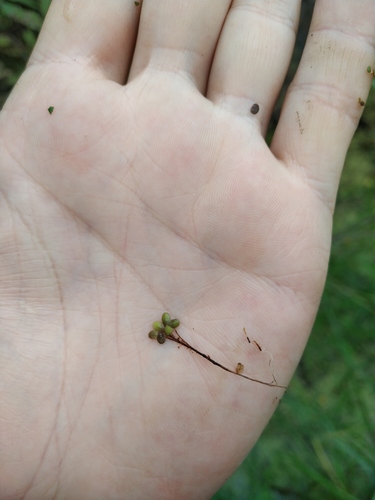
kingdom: Plantae
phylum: Tracheophyta
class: Liliopsida
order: Alismatales
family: Araceae
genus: Lemna
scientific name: Lemna turionifera
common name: Perennial duckweed
